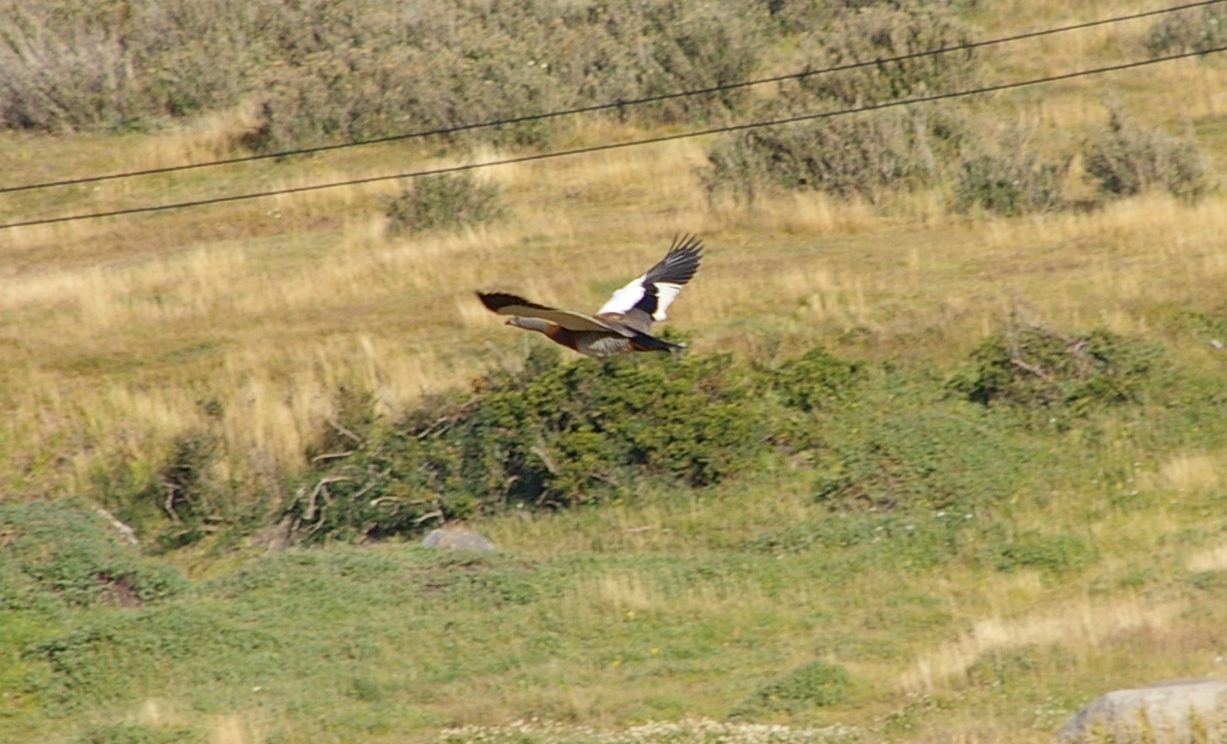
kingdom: Animalia
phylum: Chordata
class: Aves
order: Anseriformes
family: Anatidae
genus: Chloephaga
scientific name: Chloephaga poliocephala
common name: Ashy-headed goose
